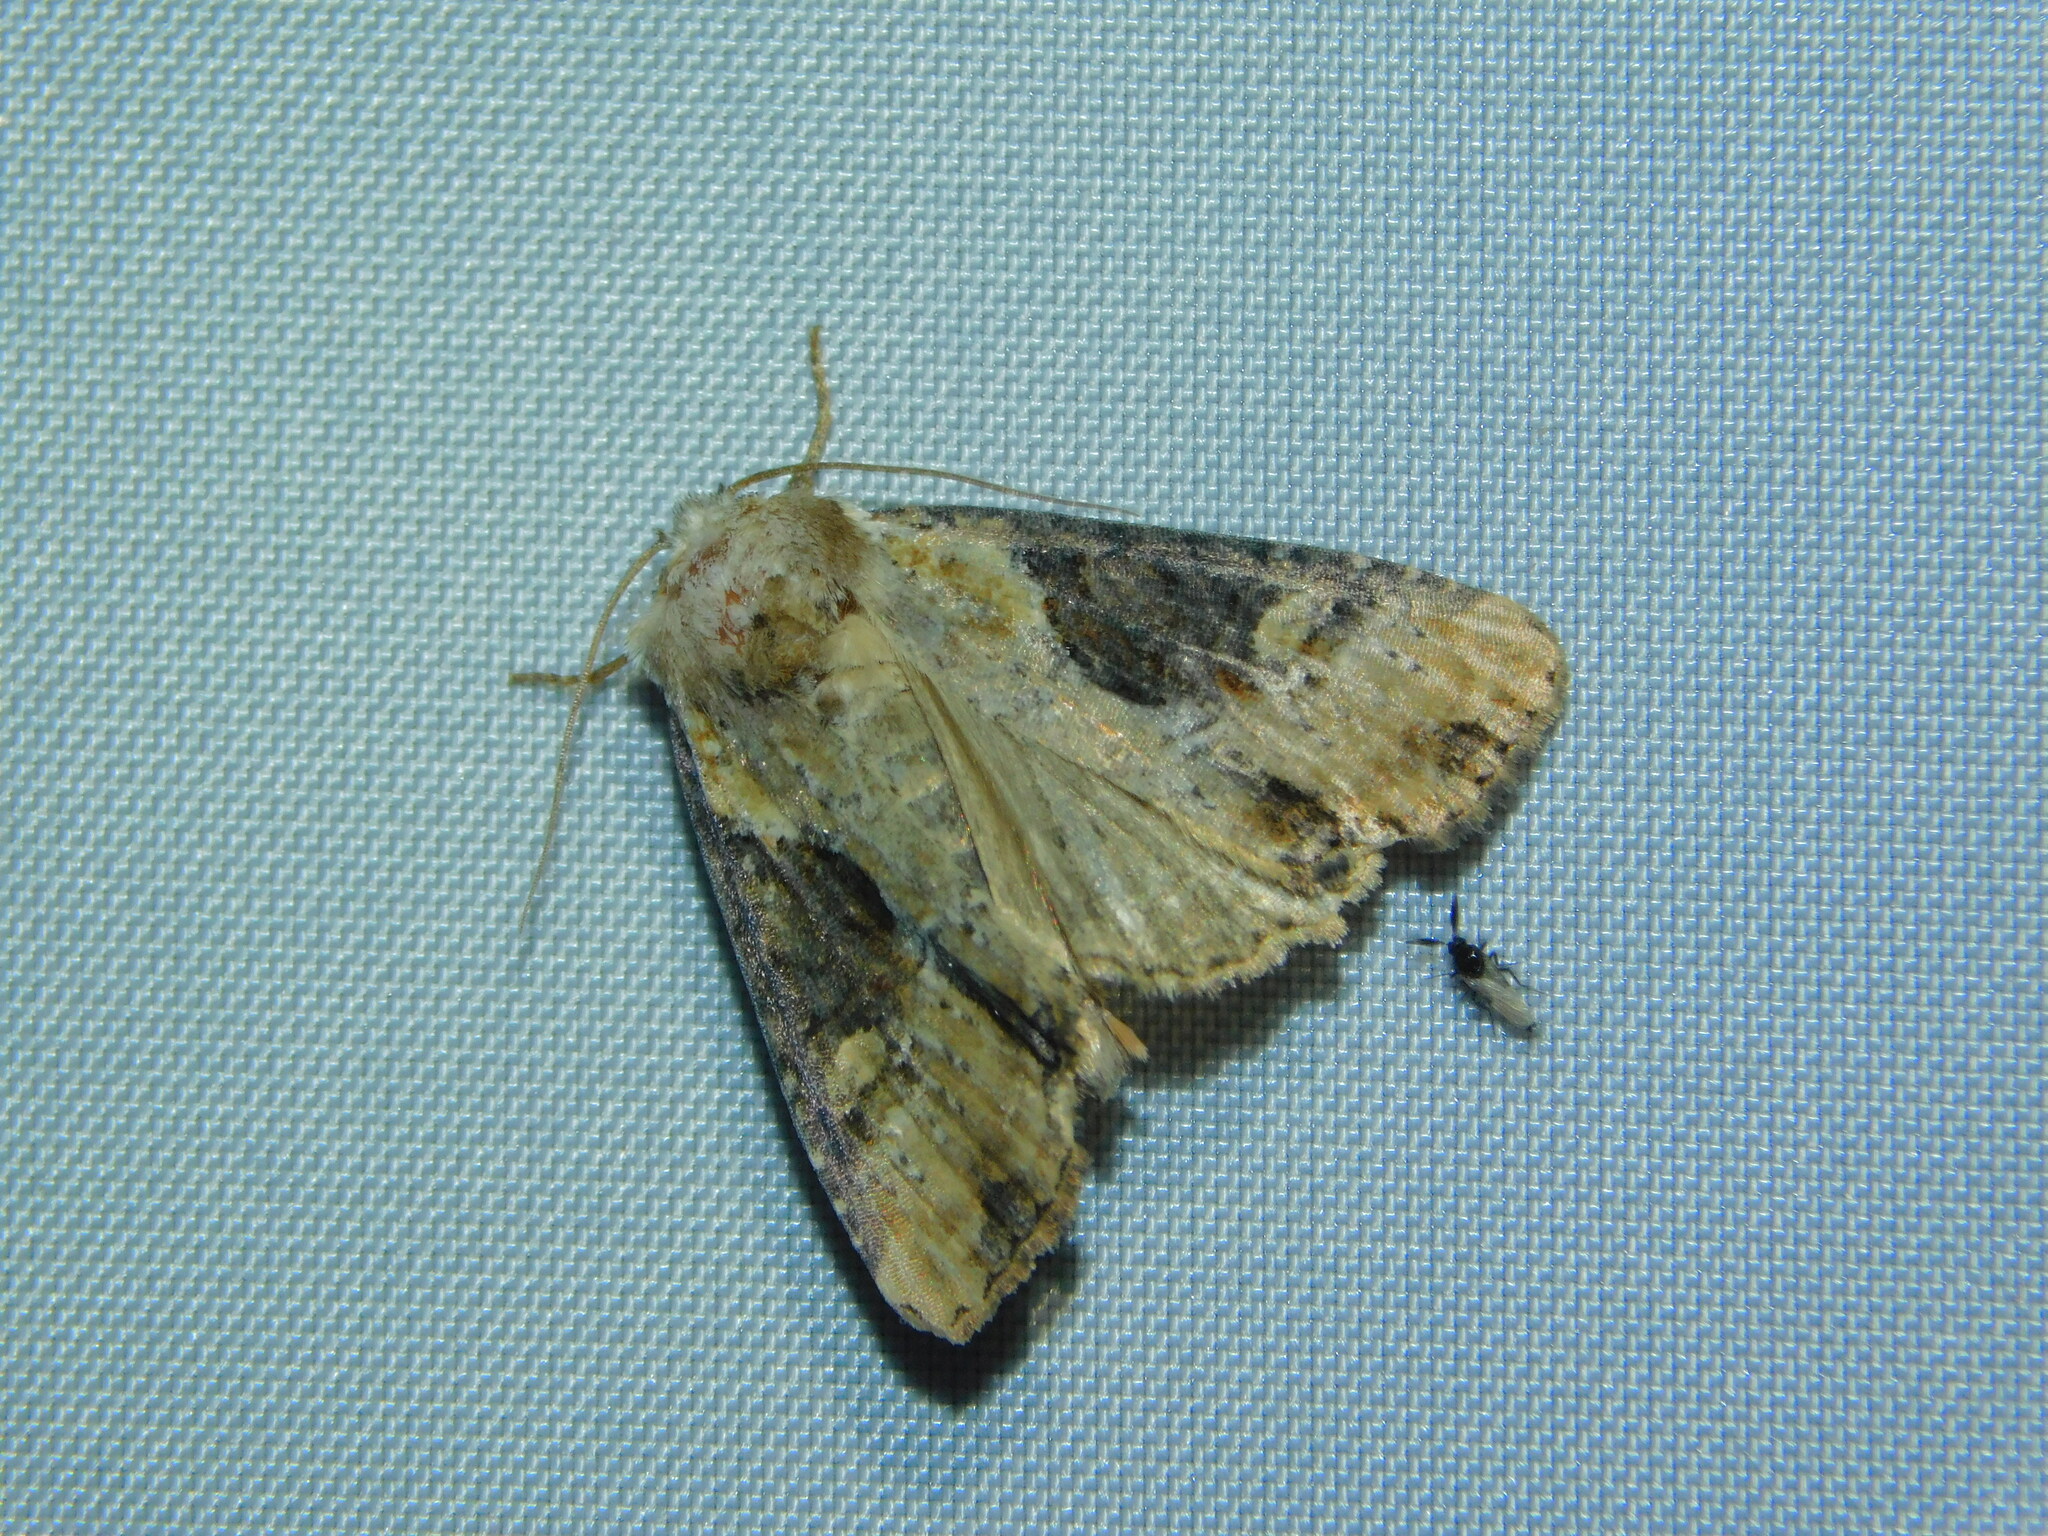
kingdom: Animalia
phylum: Arthropoda
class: Insecta
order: Lepidoptera
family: Noctuidae
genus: Lateroligia
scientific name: Lateroligia ophiogramma
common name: Double lobed
